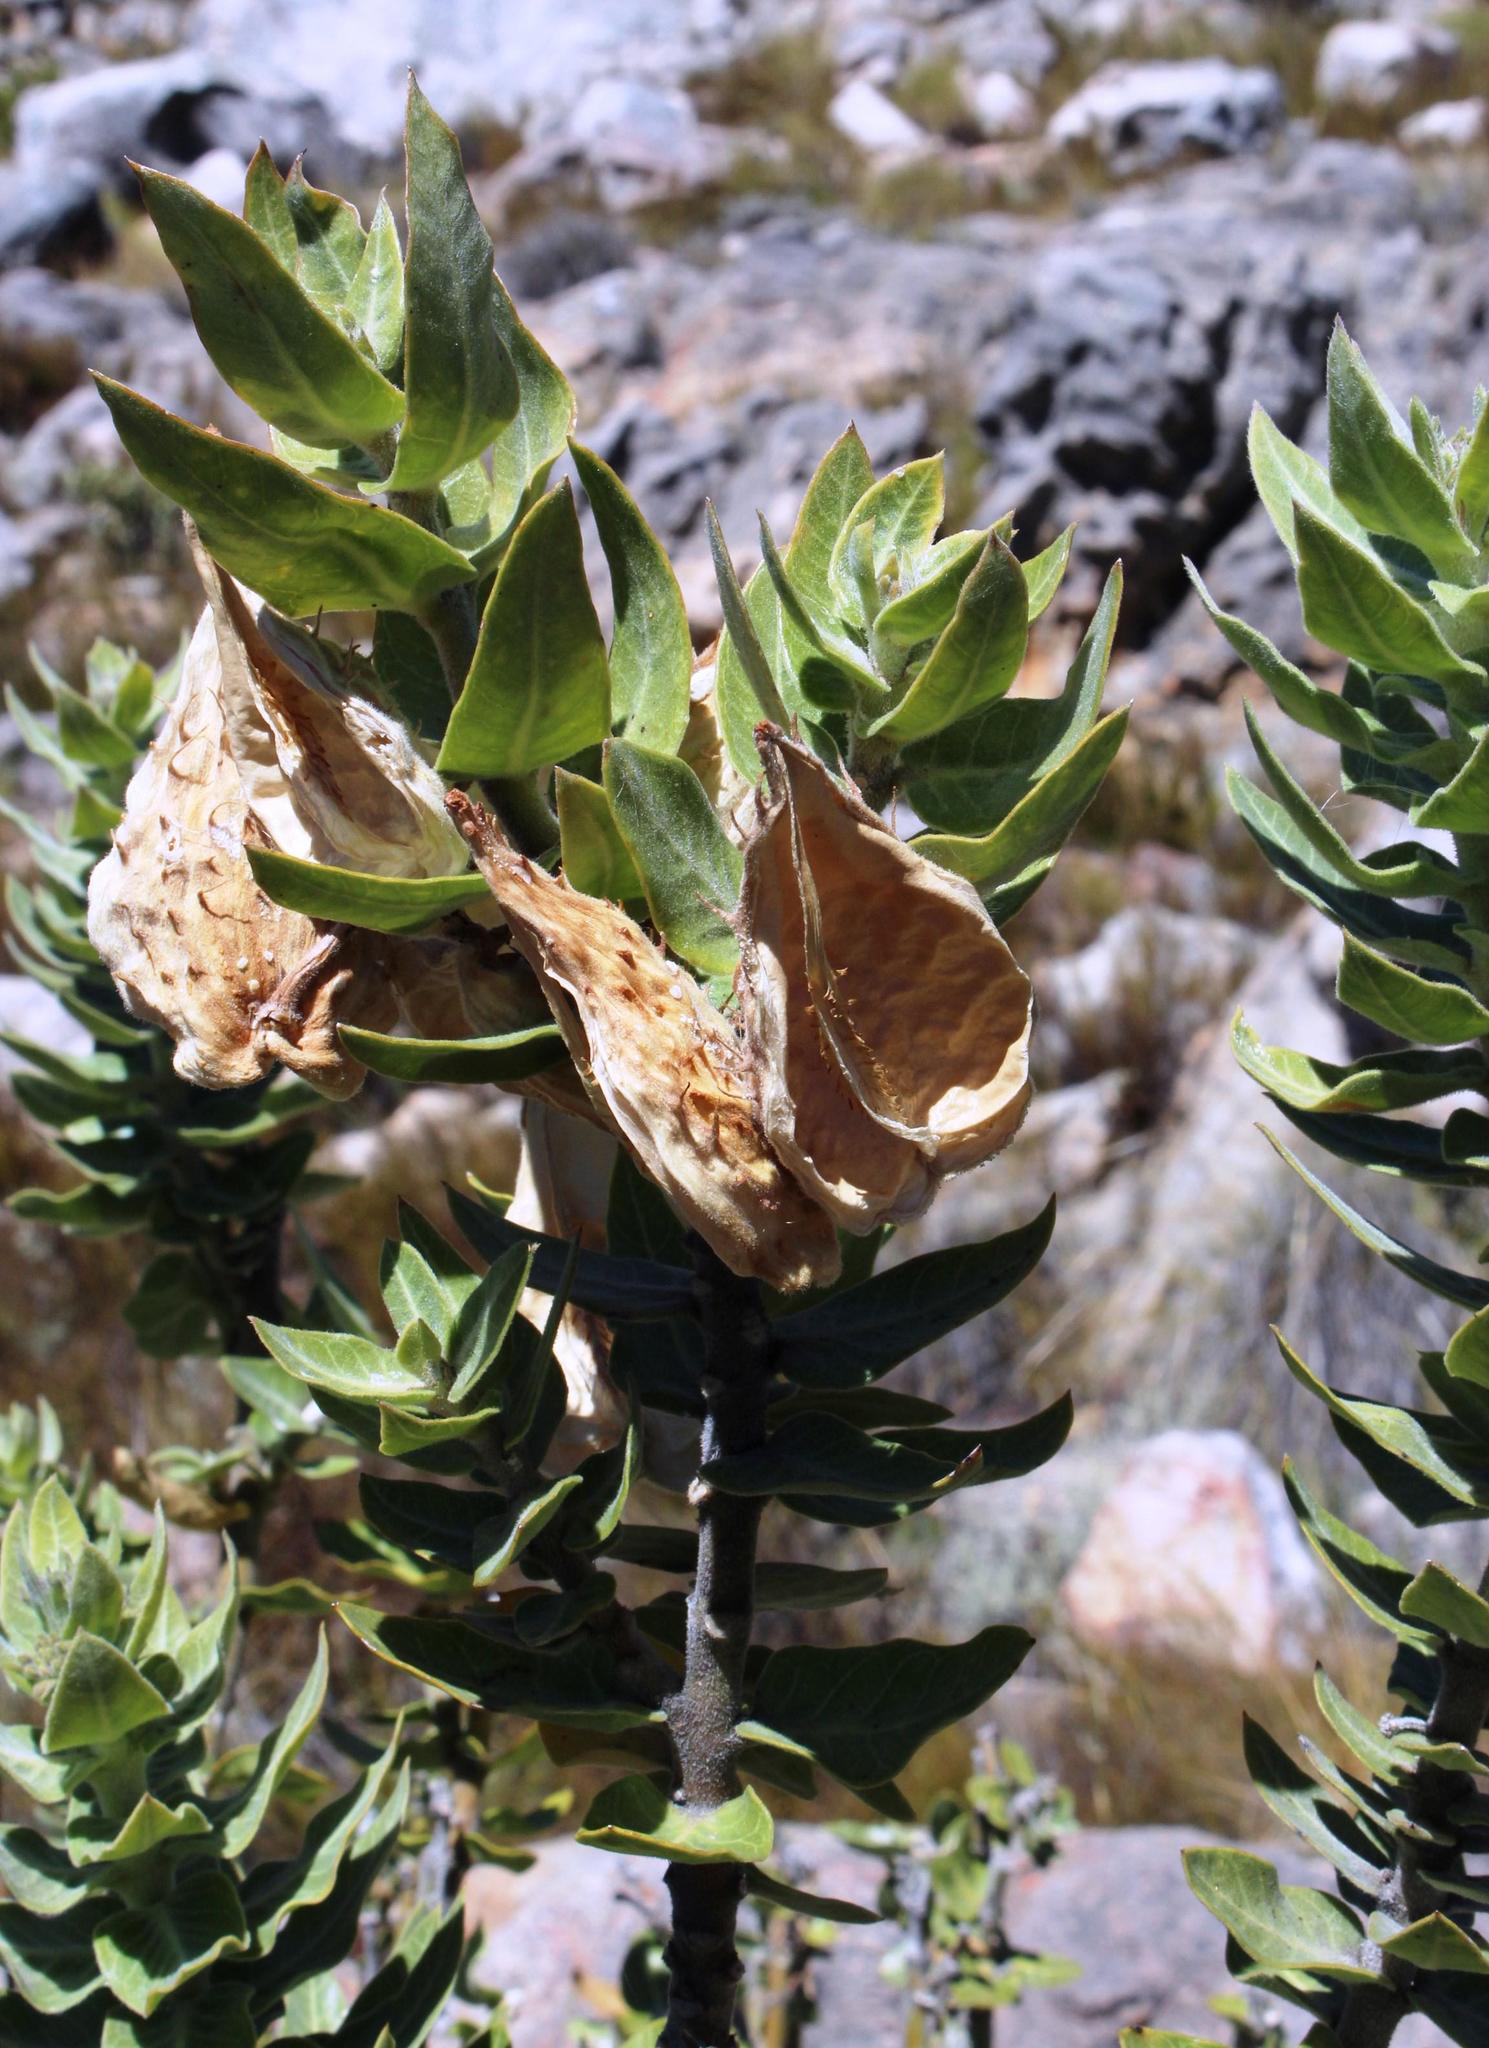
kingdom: Plantae
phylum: Tracheophyta
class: Magnoliopsida
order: Gentianales
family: Apocynaceae
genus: Gomphocarpus
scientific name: Gomphocarpus cancellatus
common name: Wild cotton
